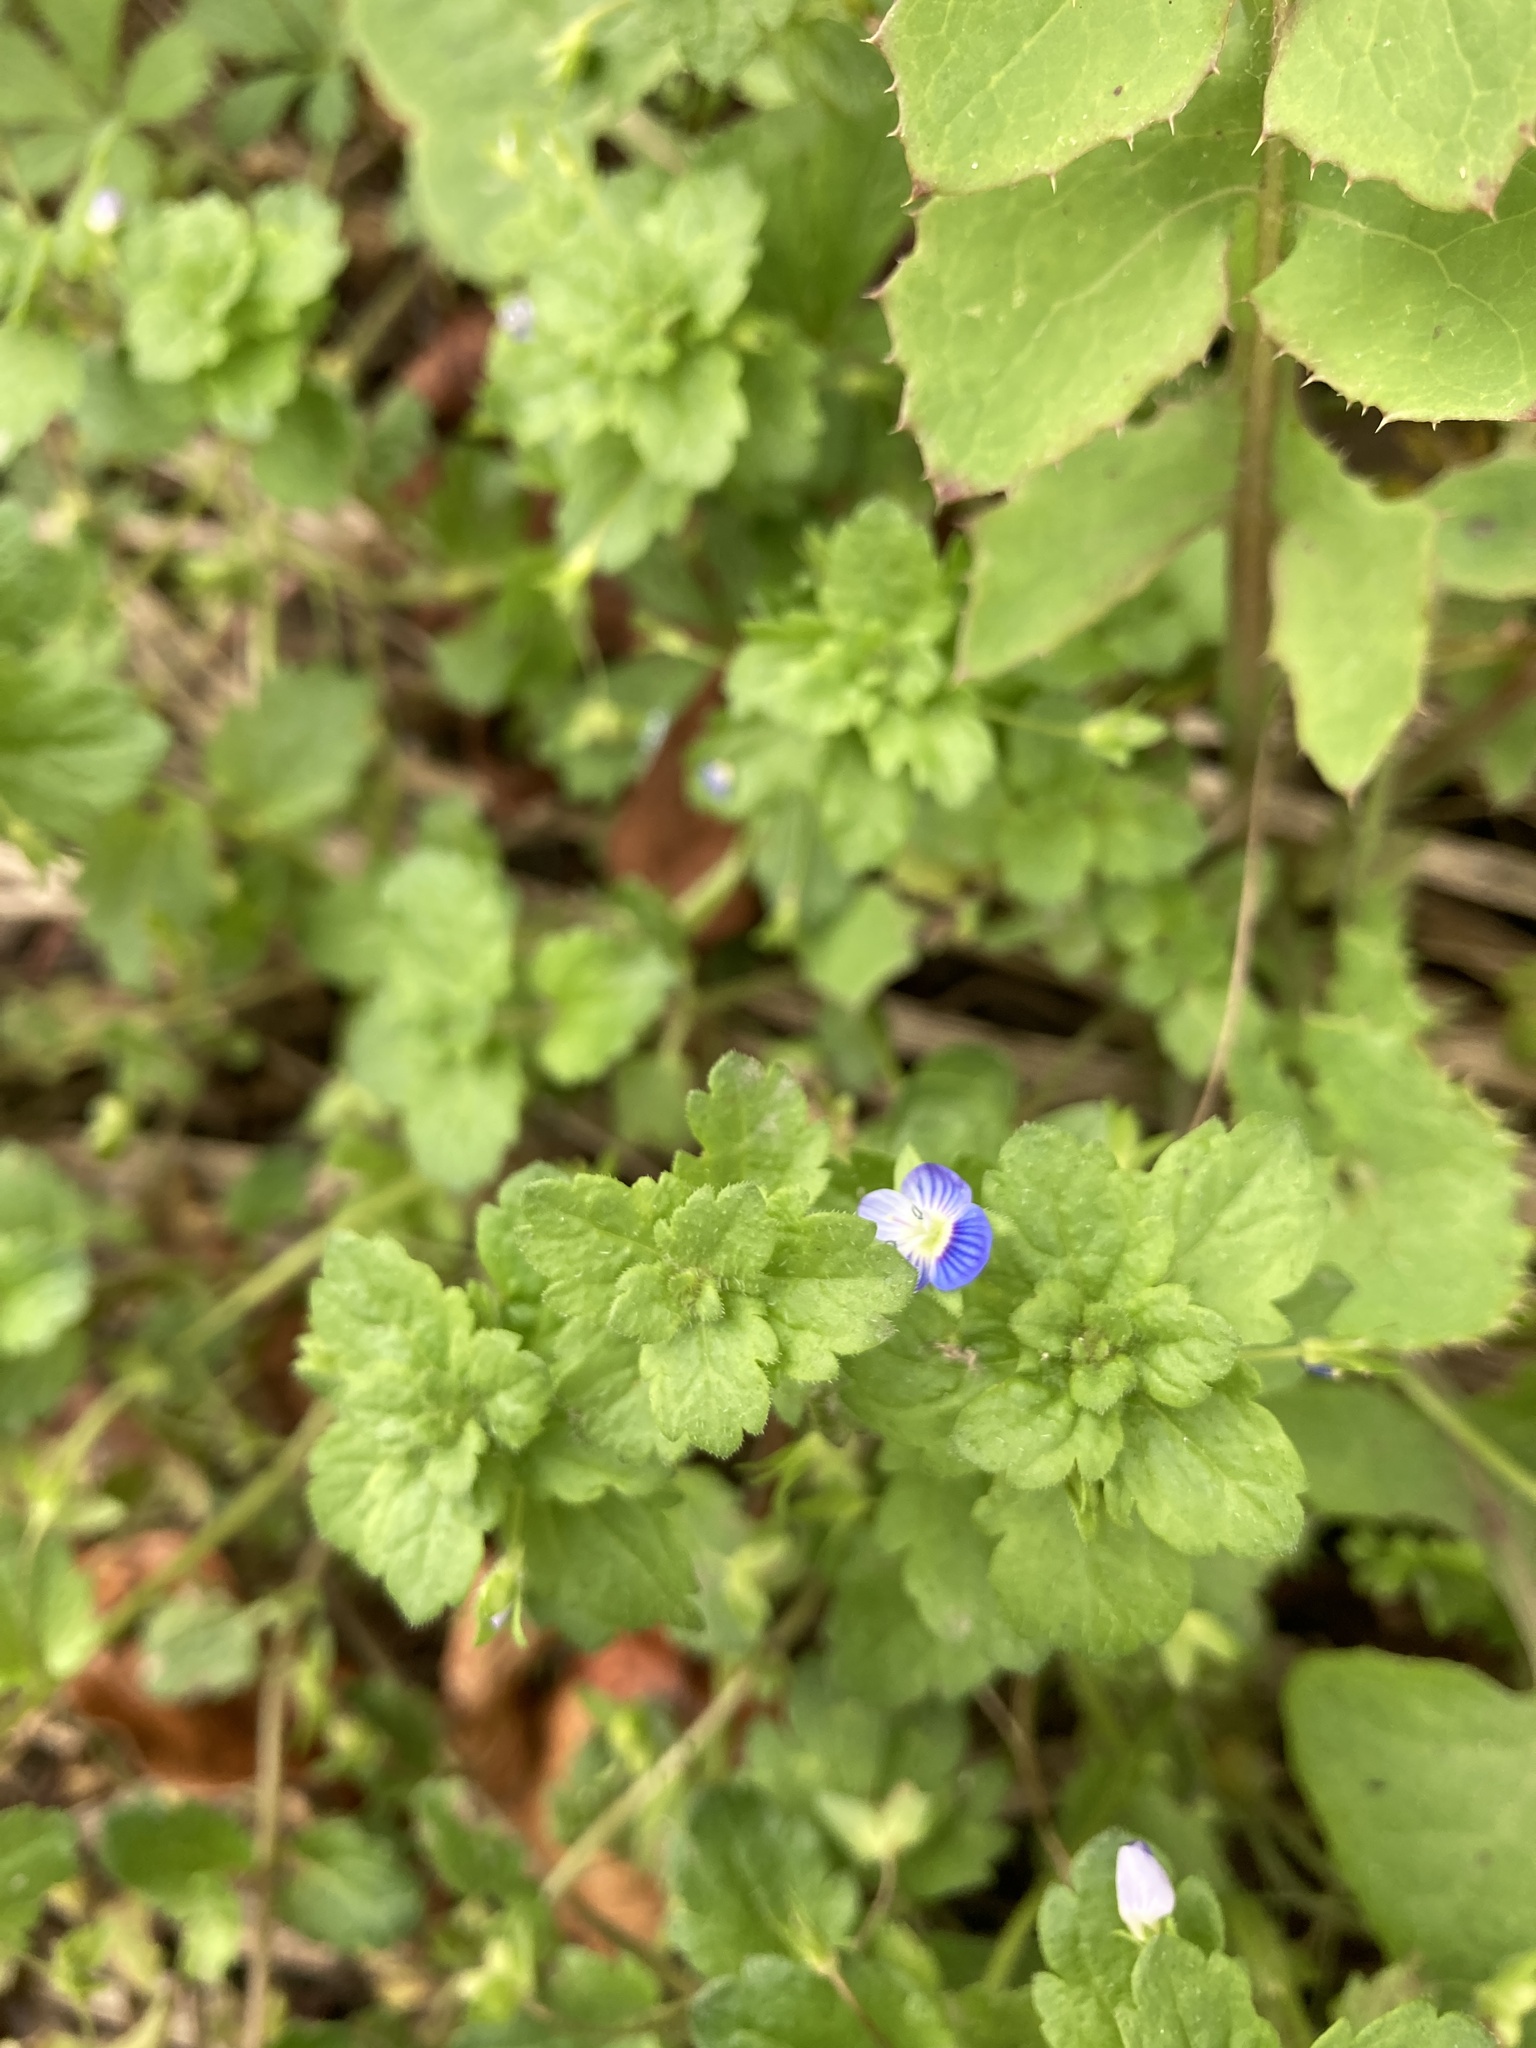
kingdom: Plantae
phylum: Tracheophyta
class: Magnoliopsida
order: Lamiales
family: Plantaginaceae
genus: Veronica
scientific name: Veronica persica
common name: Common field-speedwell
